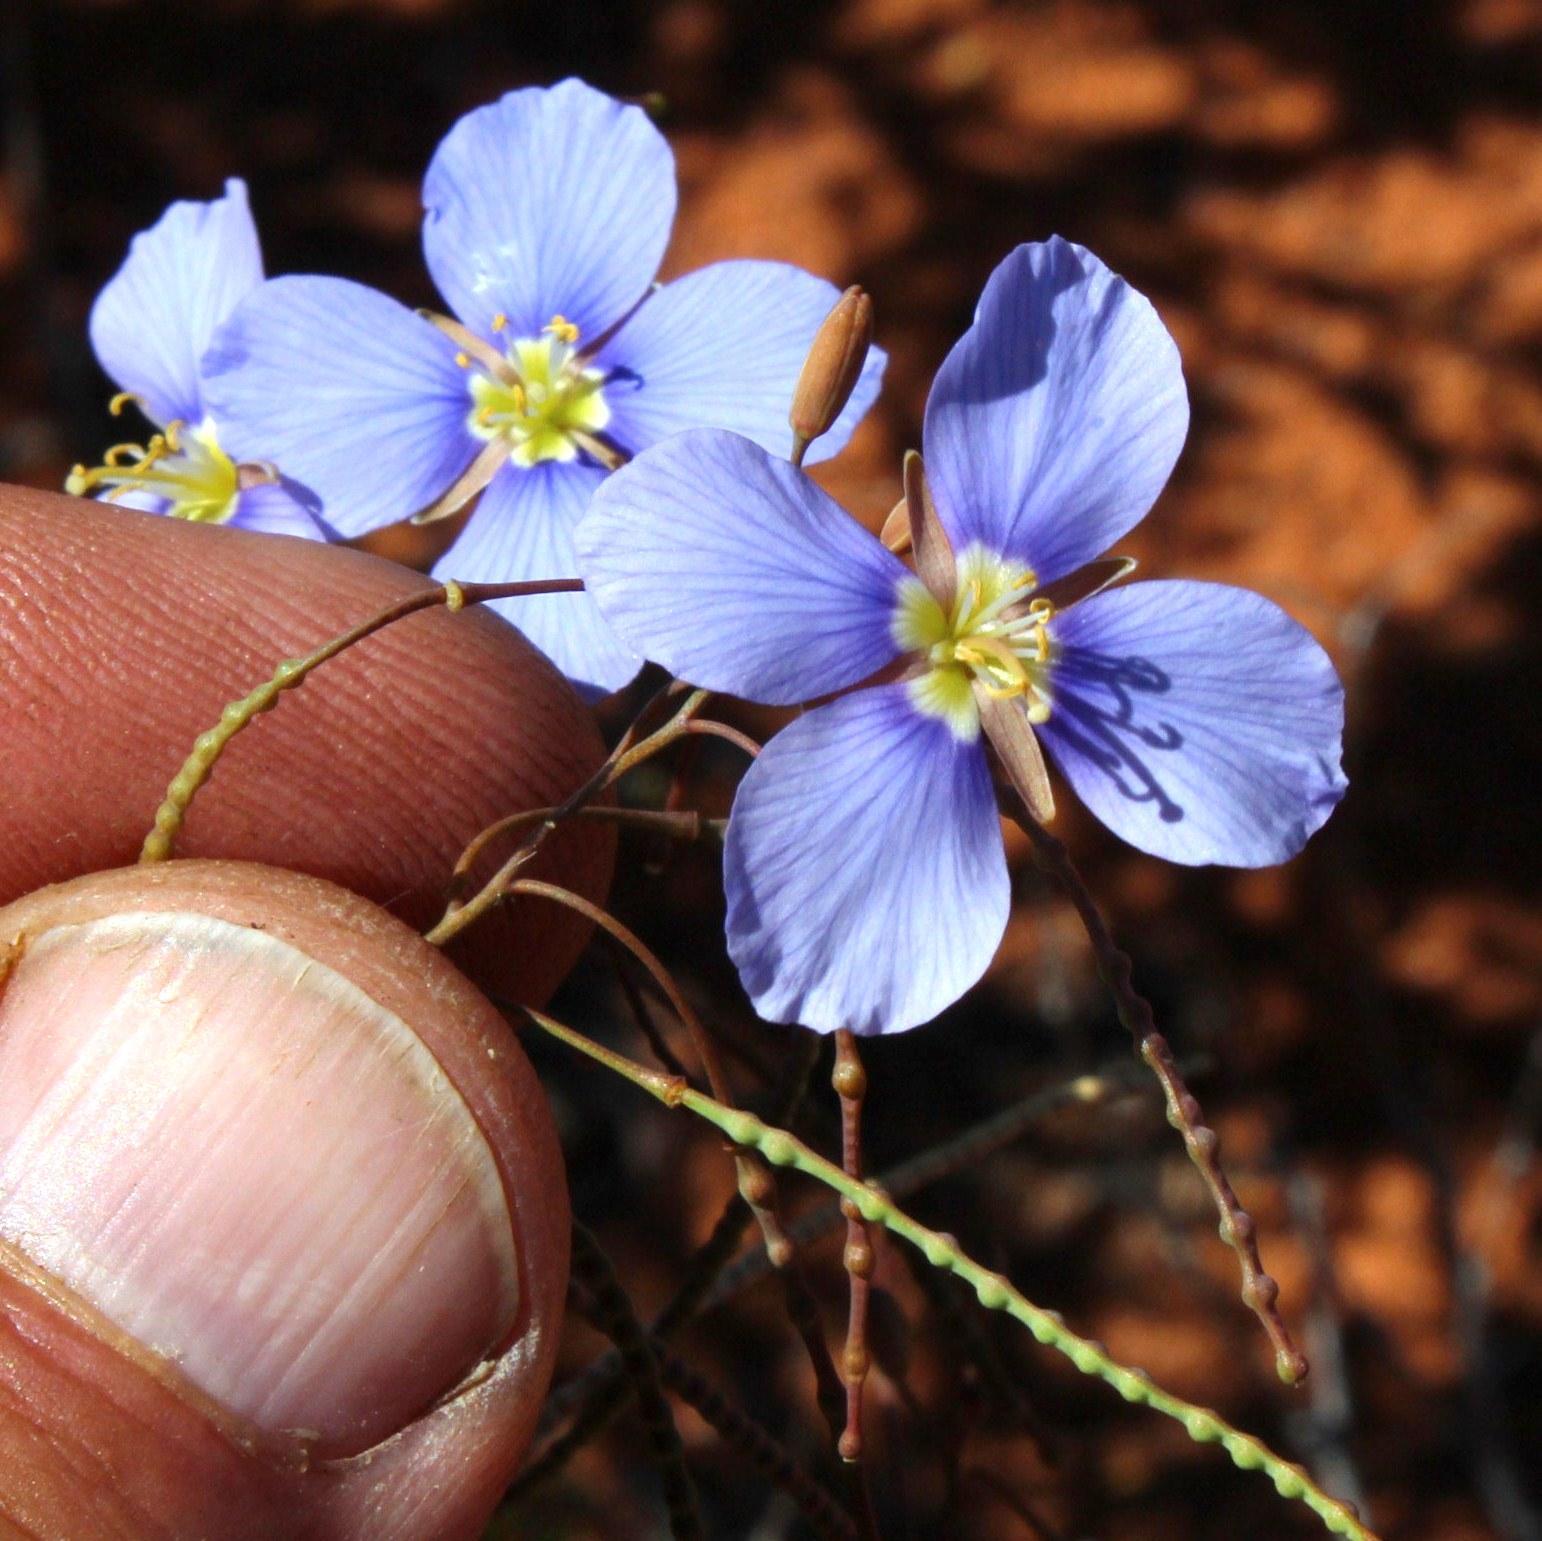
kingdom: Plantae
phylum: Tracheophyta
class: Magnoliopsida
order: Brassicales
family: Brassicaceae
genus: Heliophila
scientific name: Heliophila lactea
